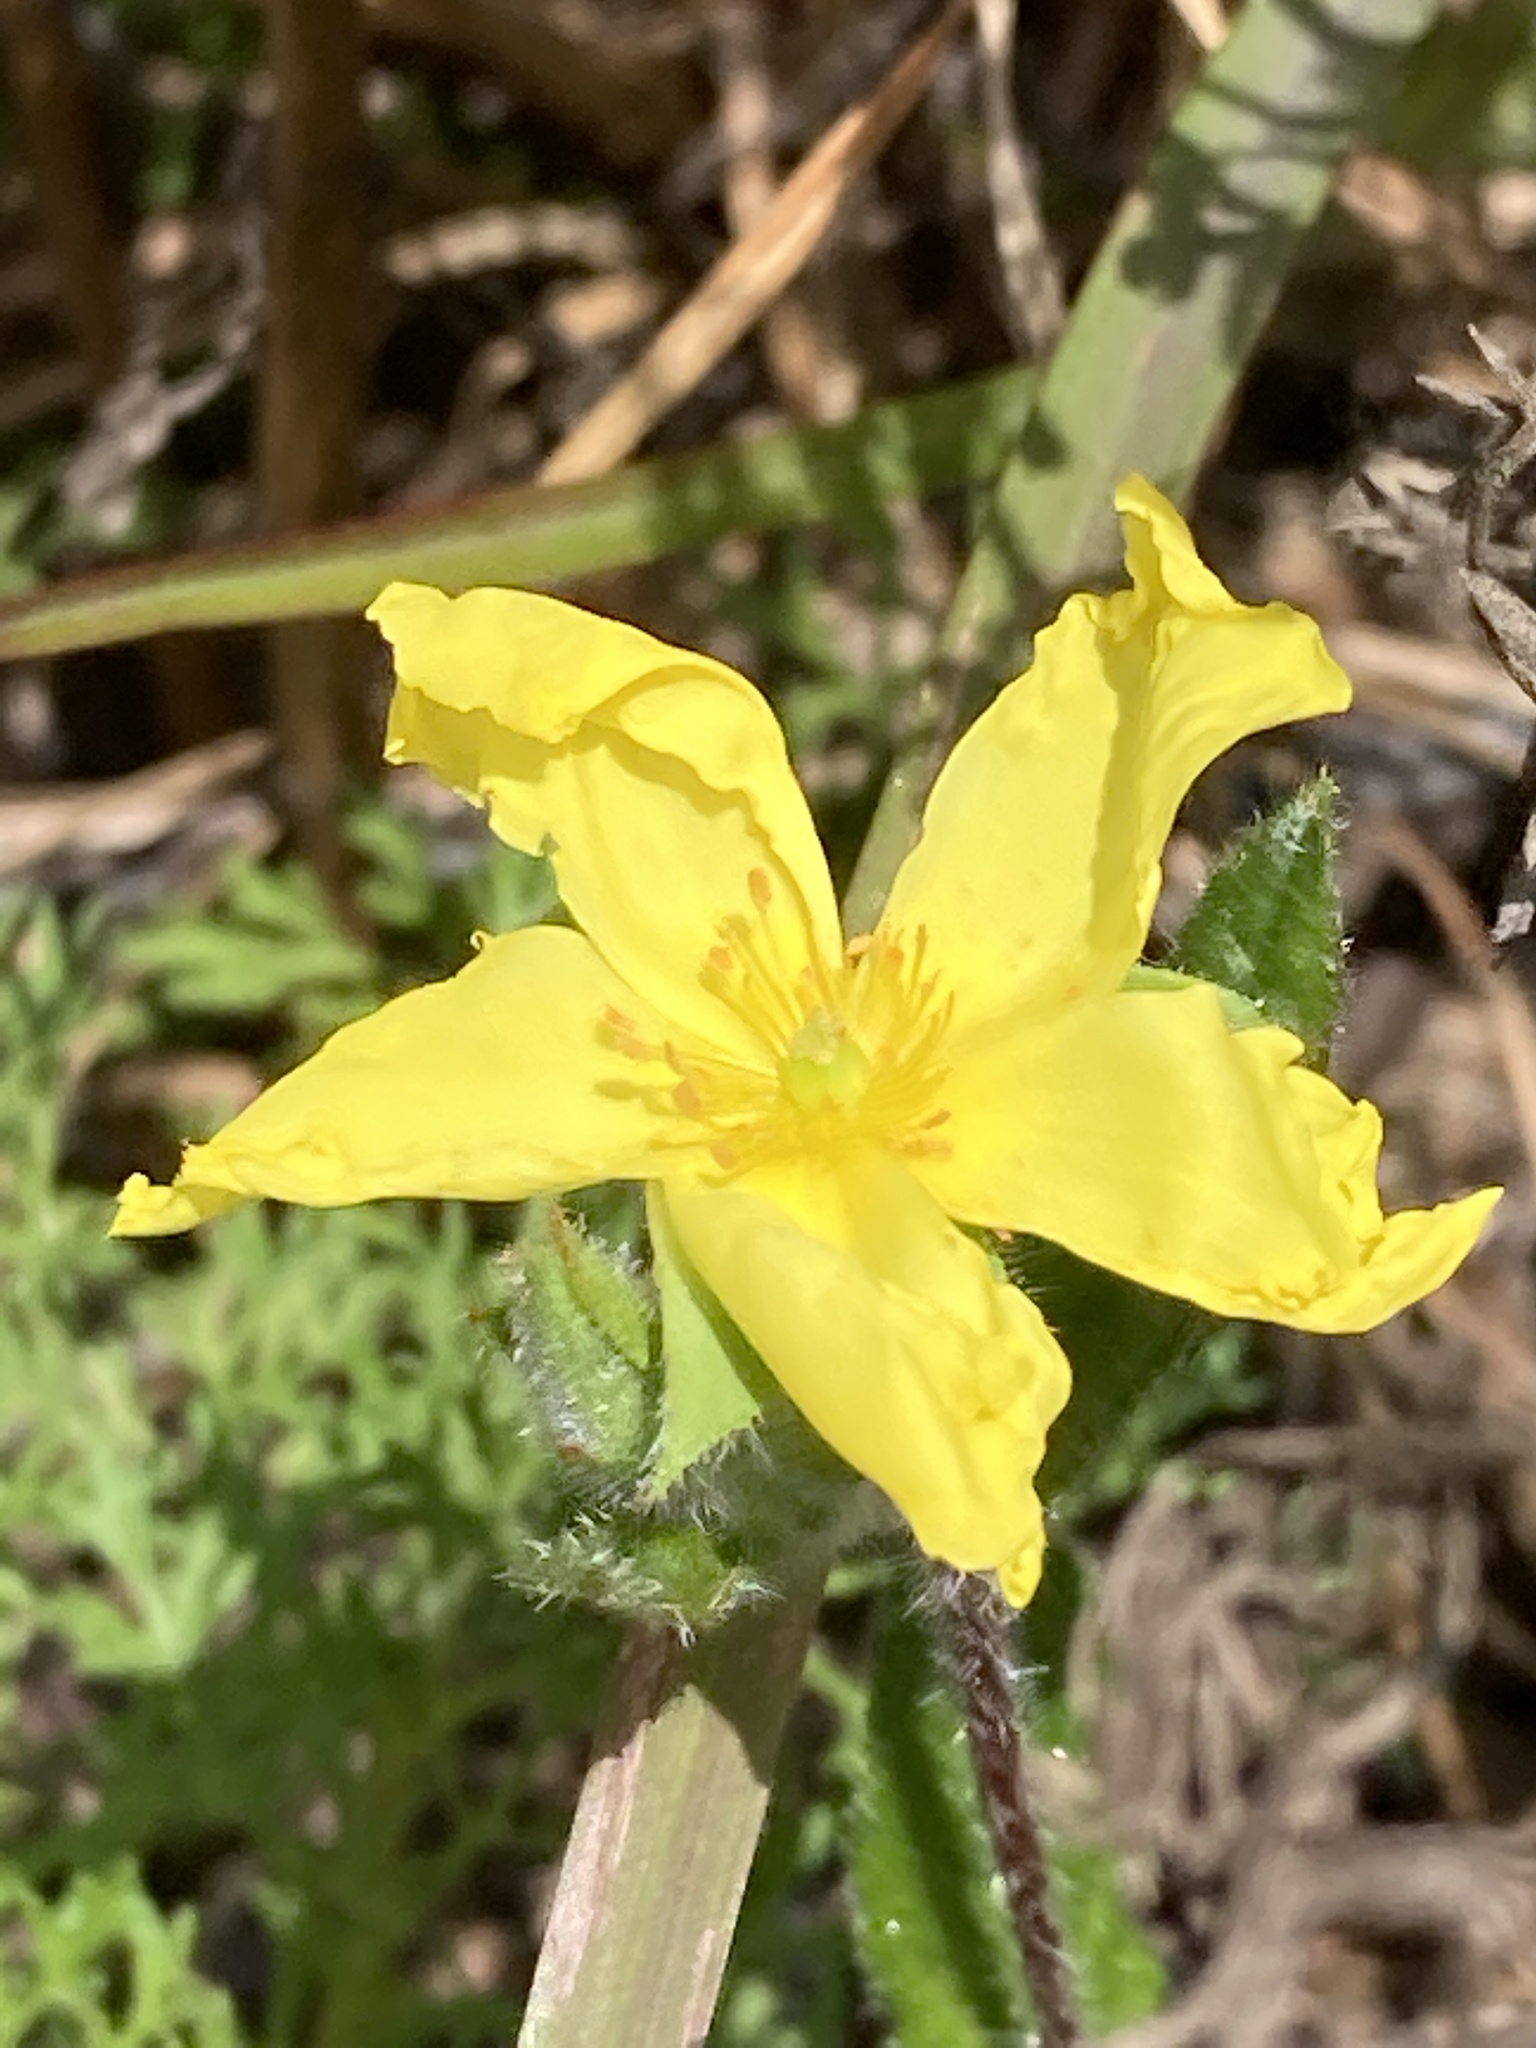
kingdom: Plantae
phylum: Tracheophyta
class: Magnoliopsida
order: Malvales
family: Cistaceae
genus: Crocanthemum
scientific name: Crocanthemum carolinianum
